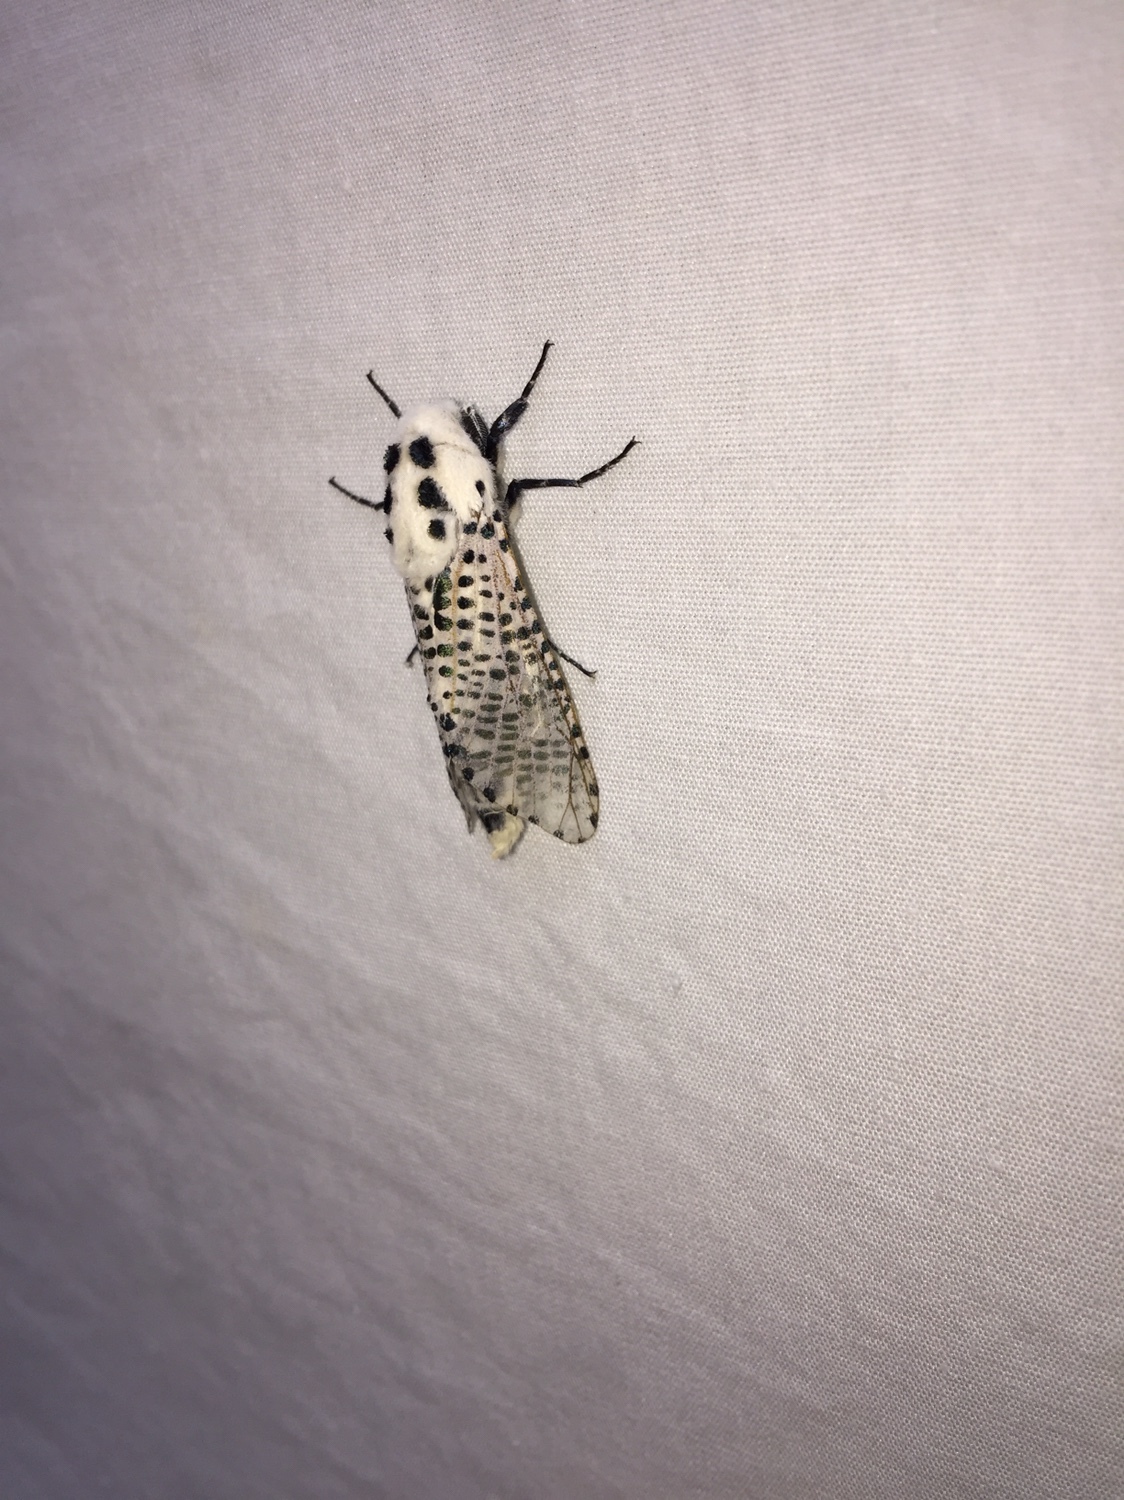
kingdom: Animalia
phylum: Arthropoda
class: Insecta
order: Lepidoptera
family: Cossidae
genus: Zeuzera
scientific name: Zeuzera pyrina
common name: Leopard moth
